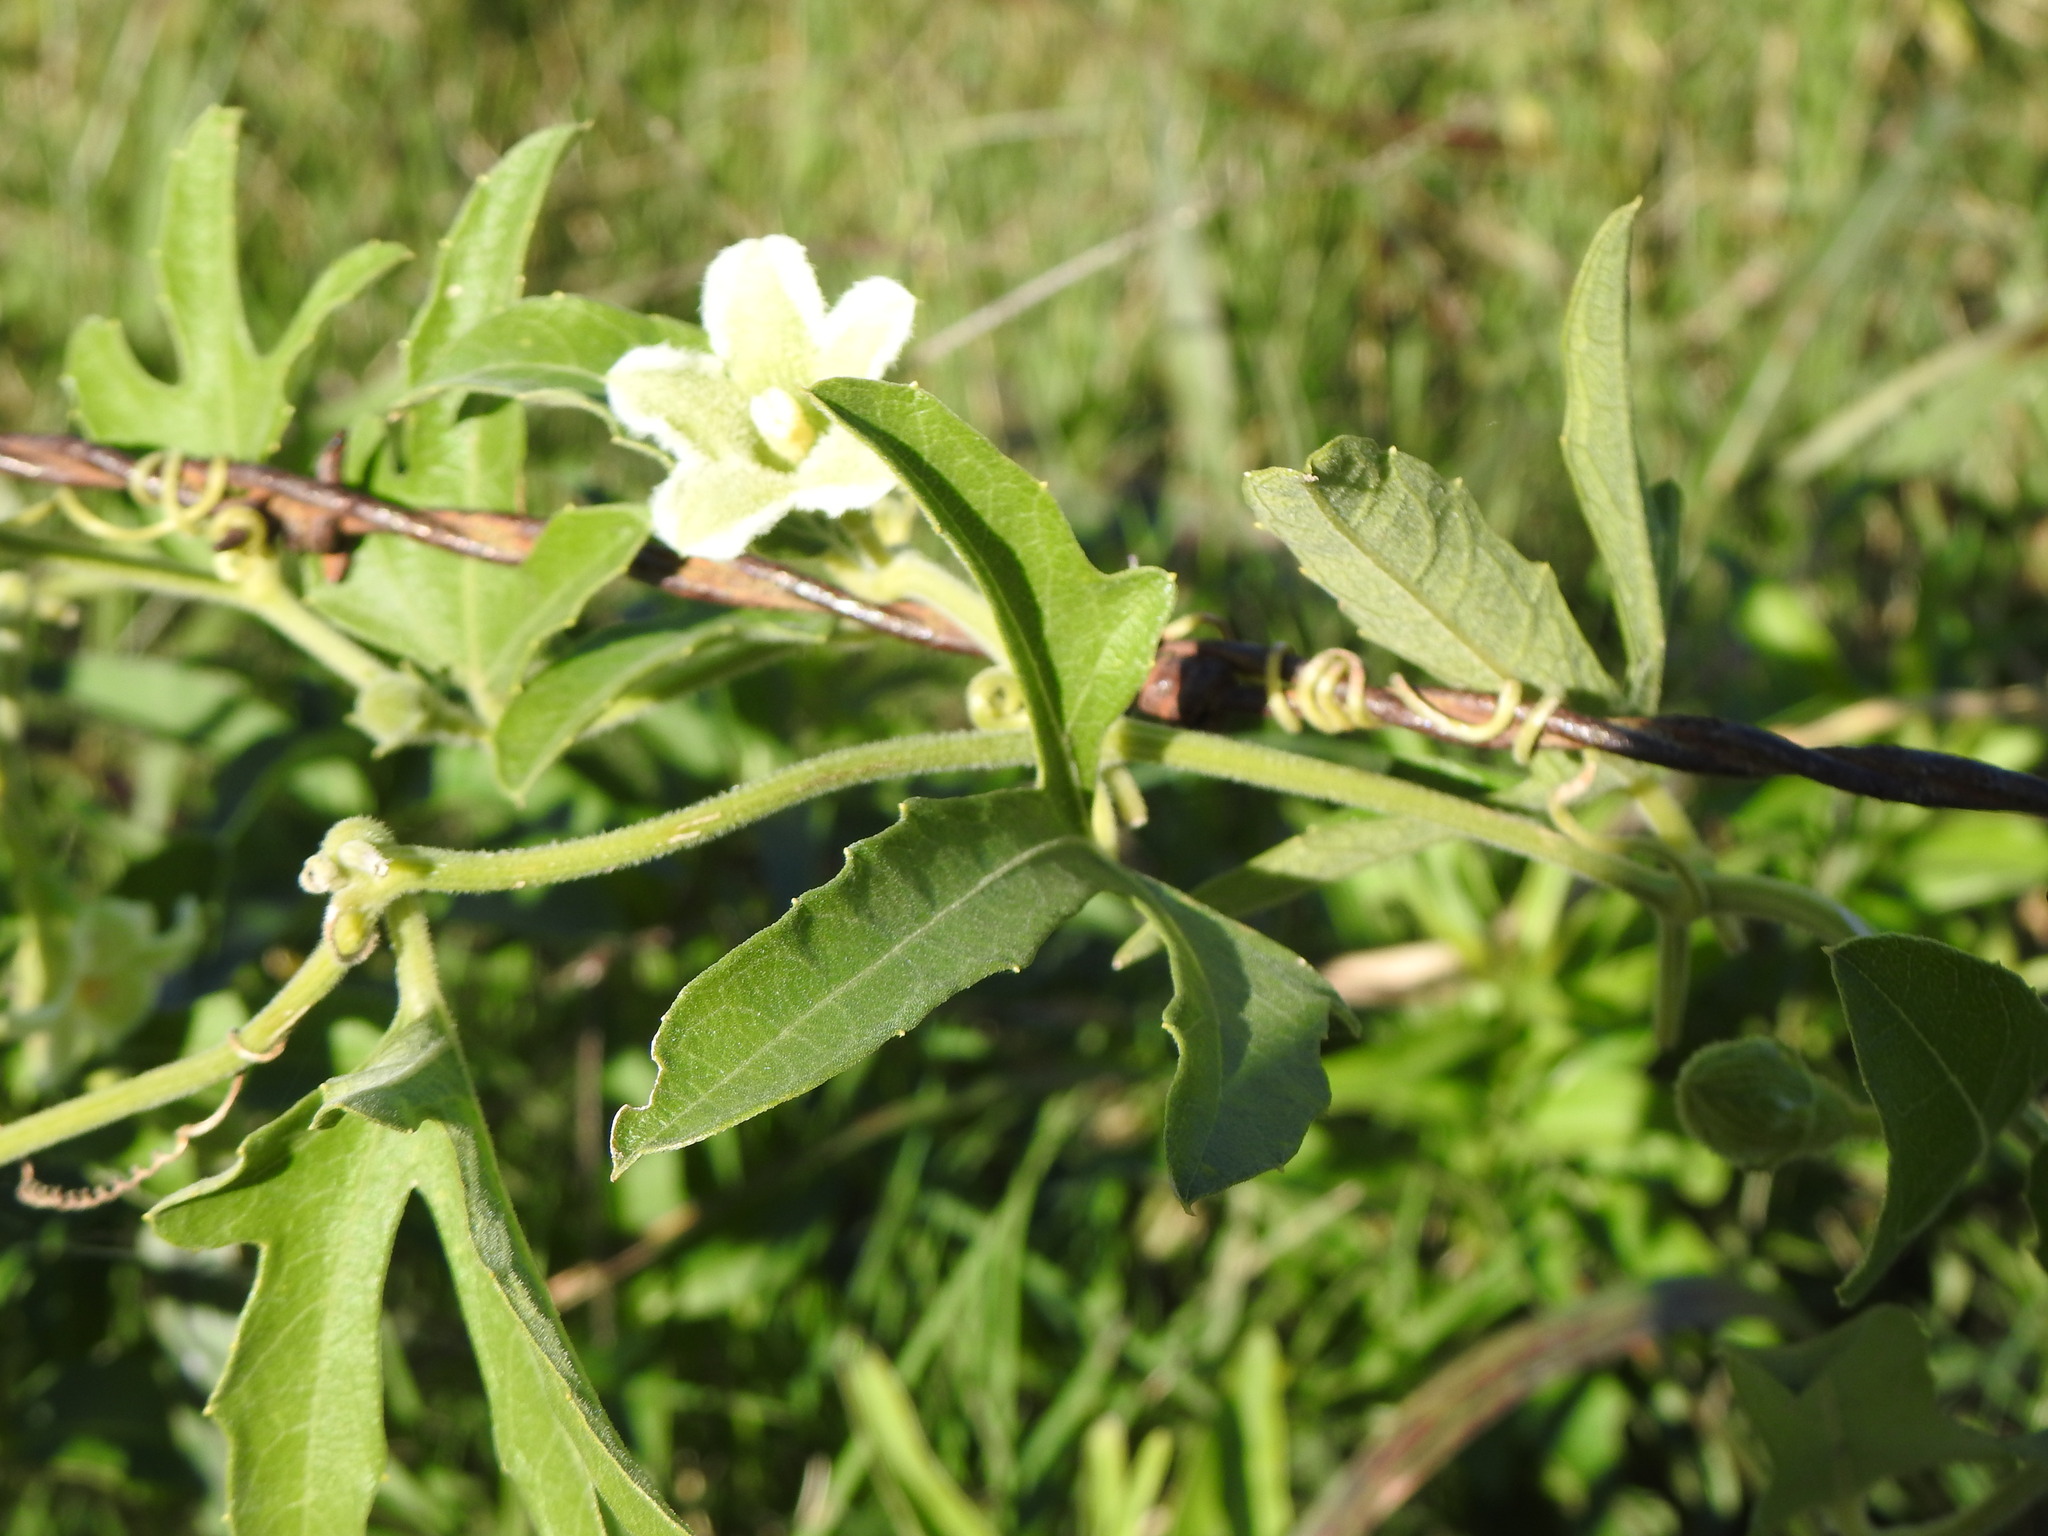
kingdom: Plantae
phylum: Tracheophyta
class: Magnoliopsida
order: Cucurbitales
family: Cucurbitaceae
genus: Cayaponia
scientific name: Cayaponia podantha
